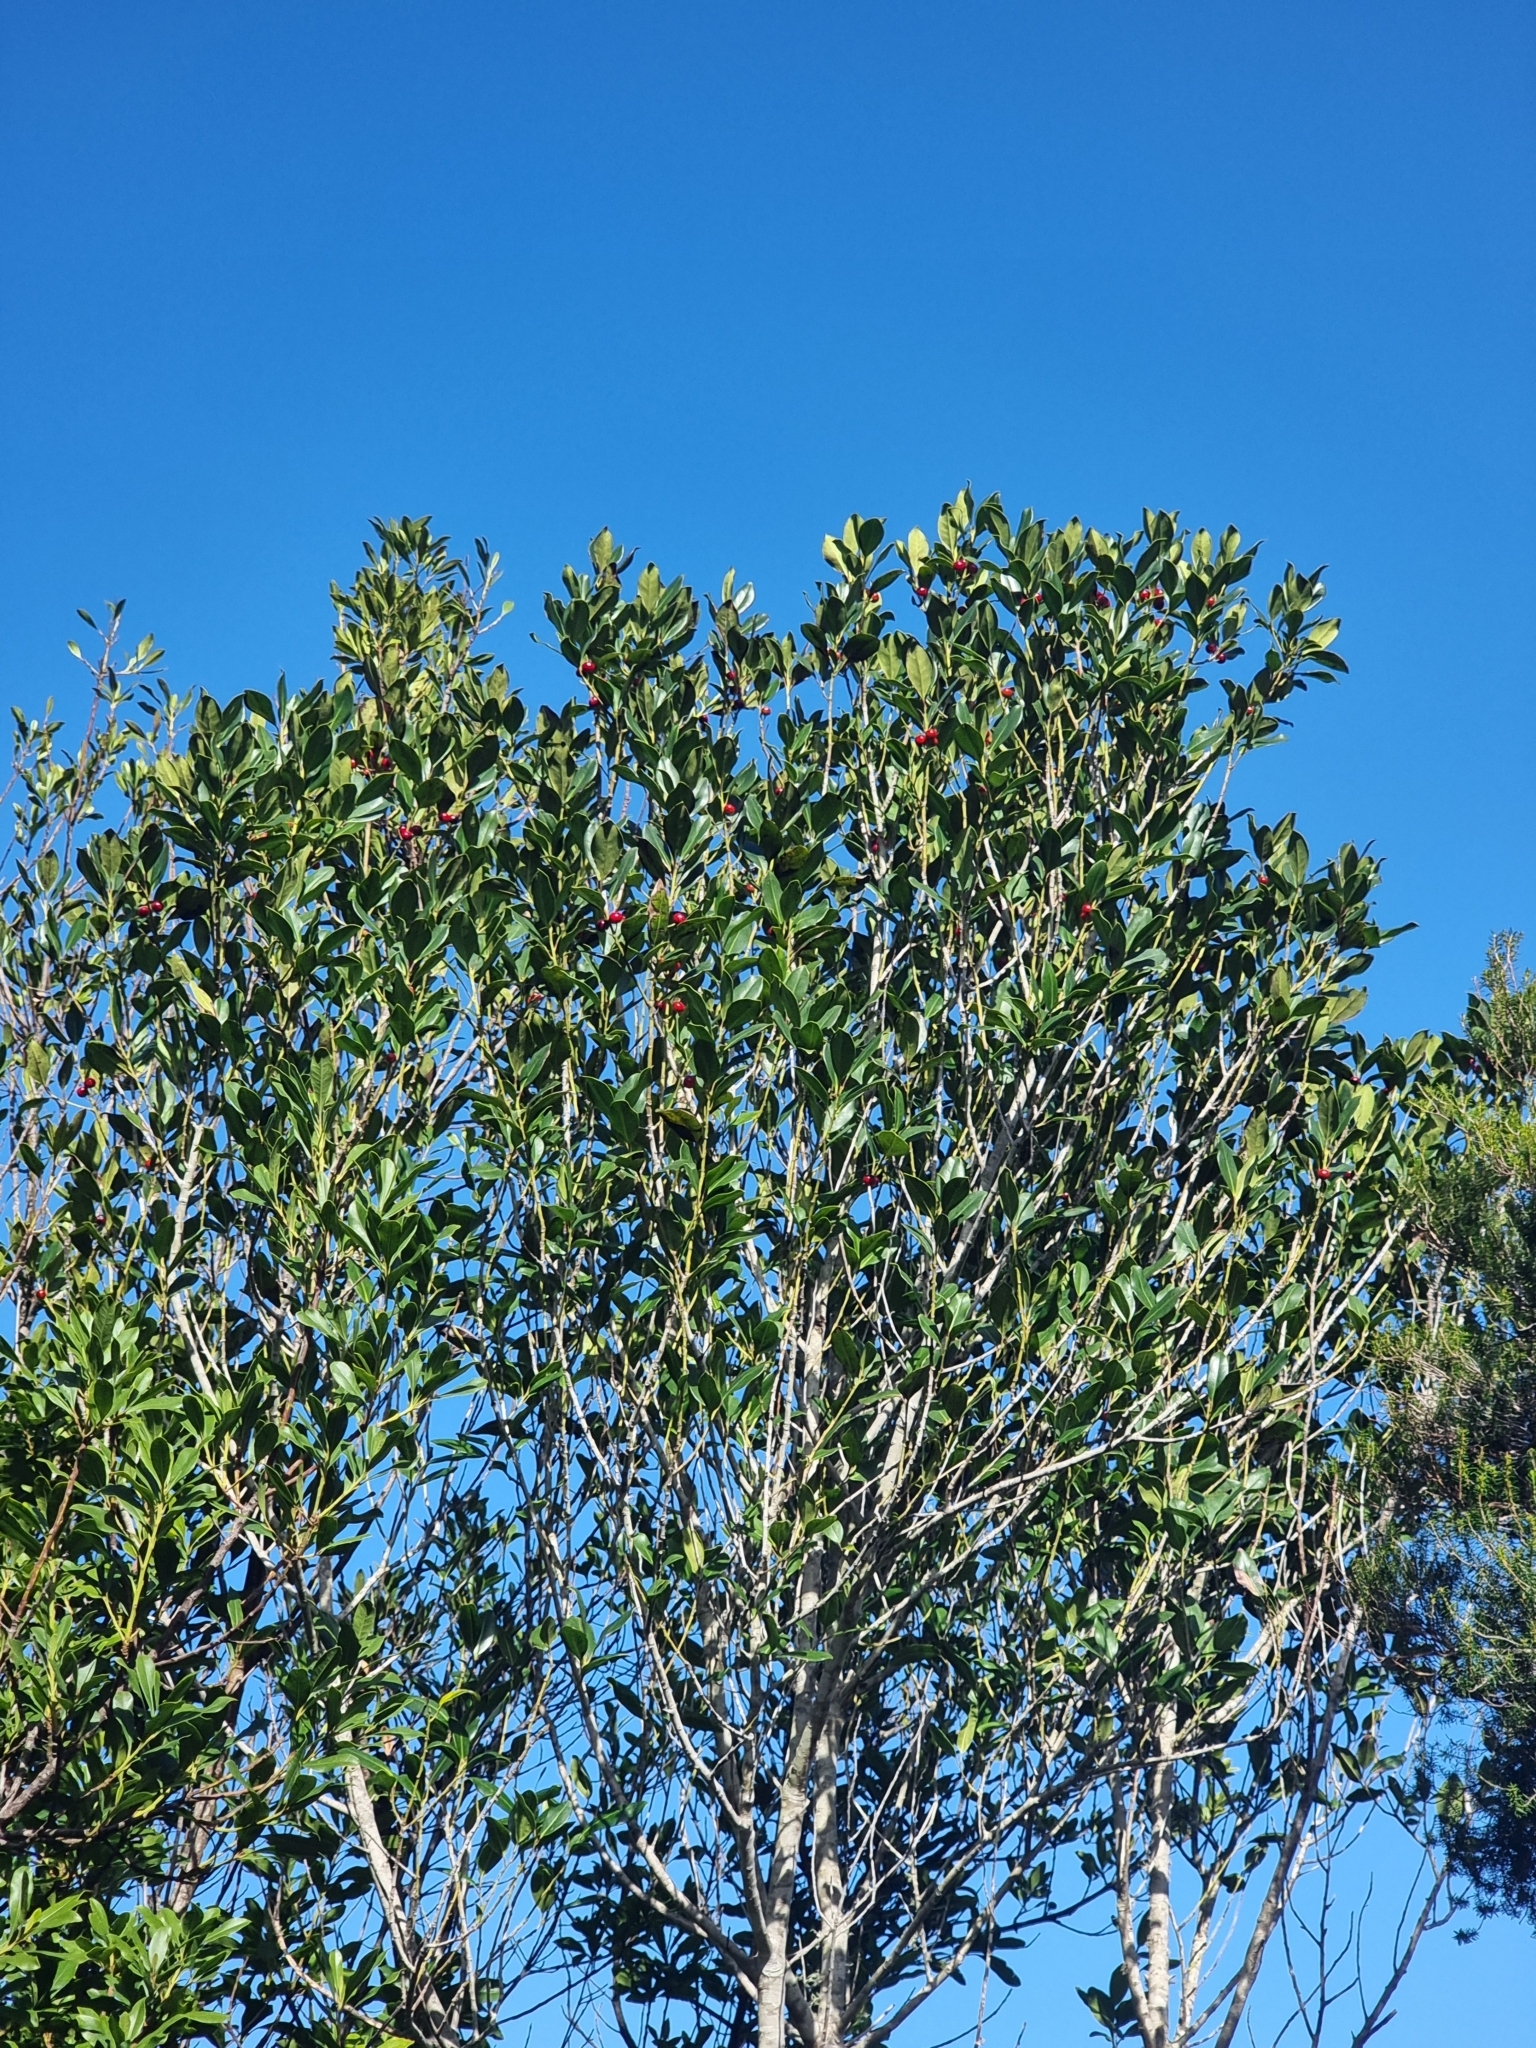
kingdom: Plantae
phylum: Tracheophyta
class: Magnoliopsida
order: Aquifoliales
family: Aquifoliaceae
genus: Ilex
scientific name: Ilex canariensis
